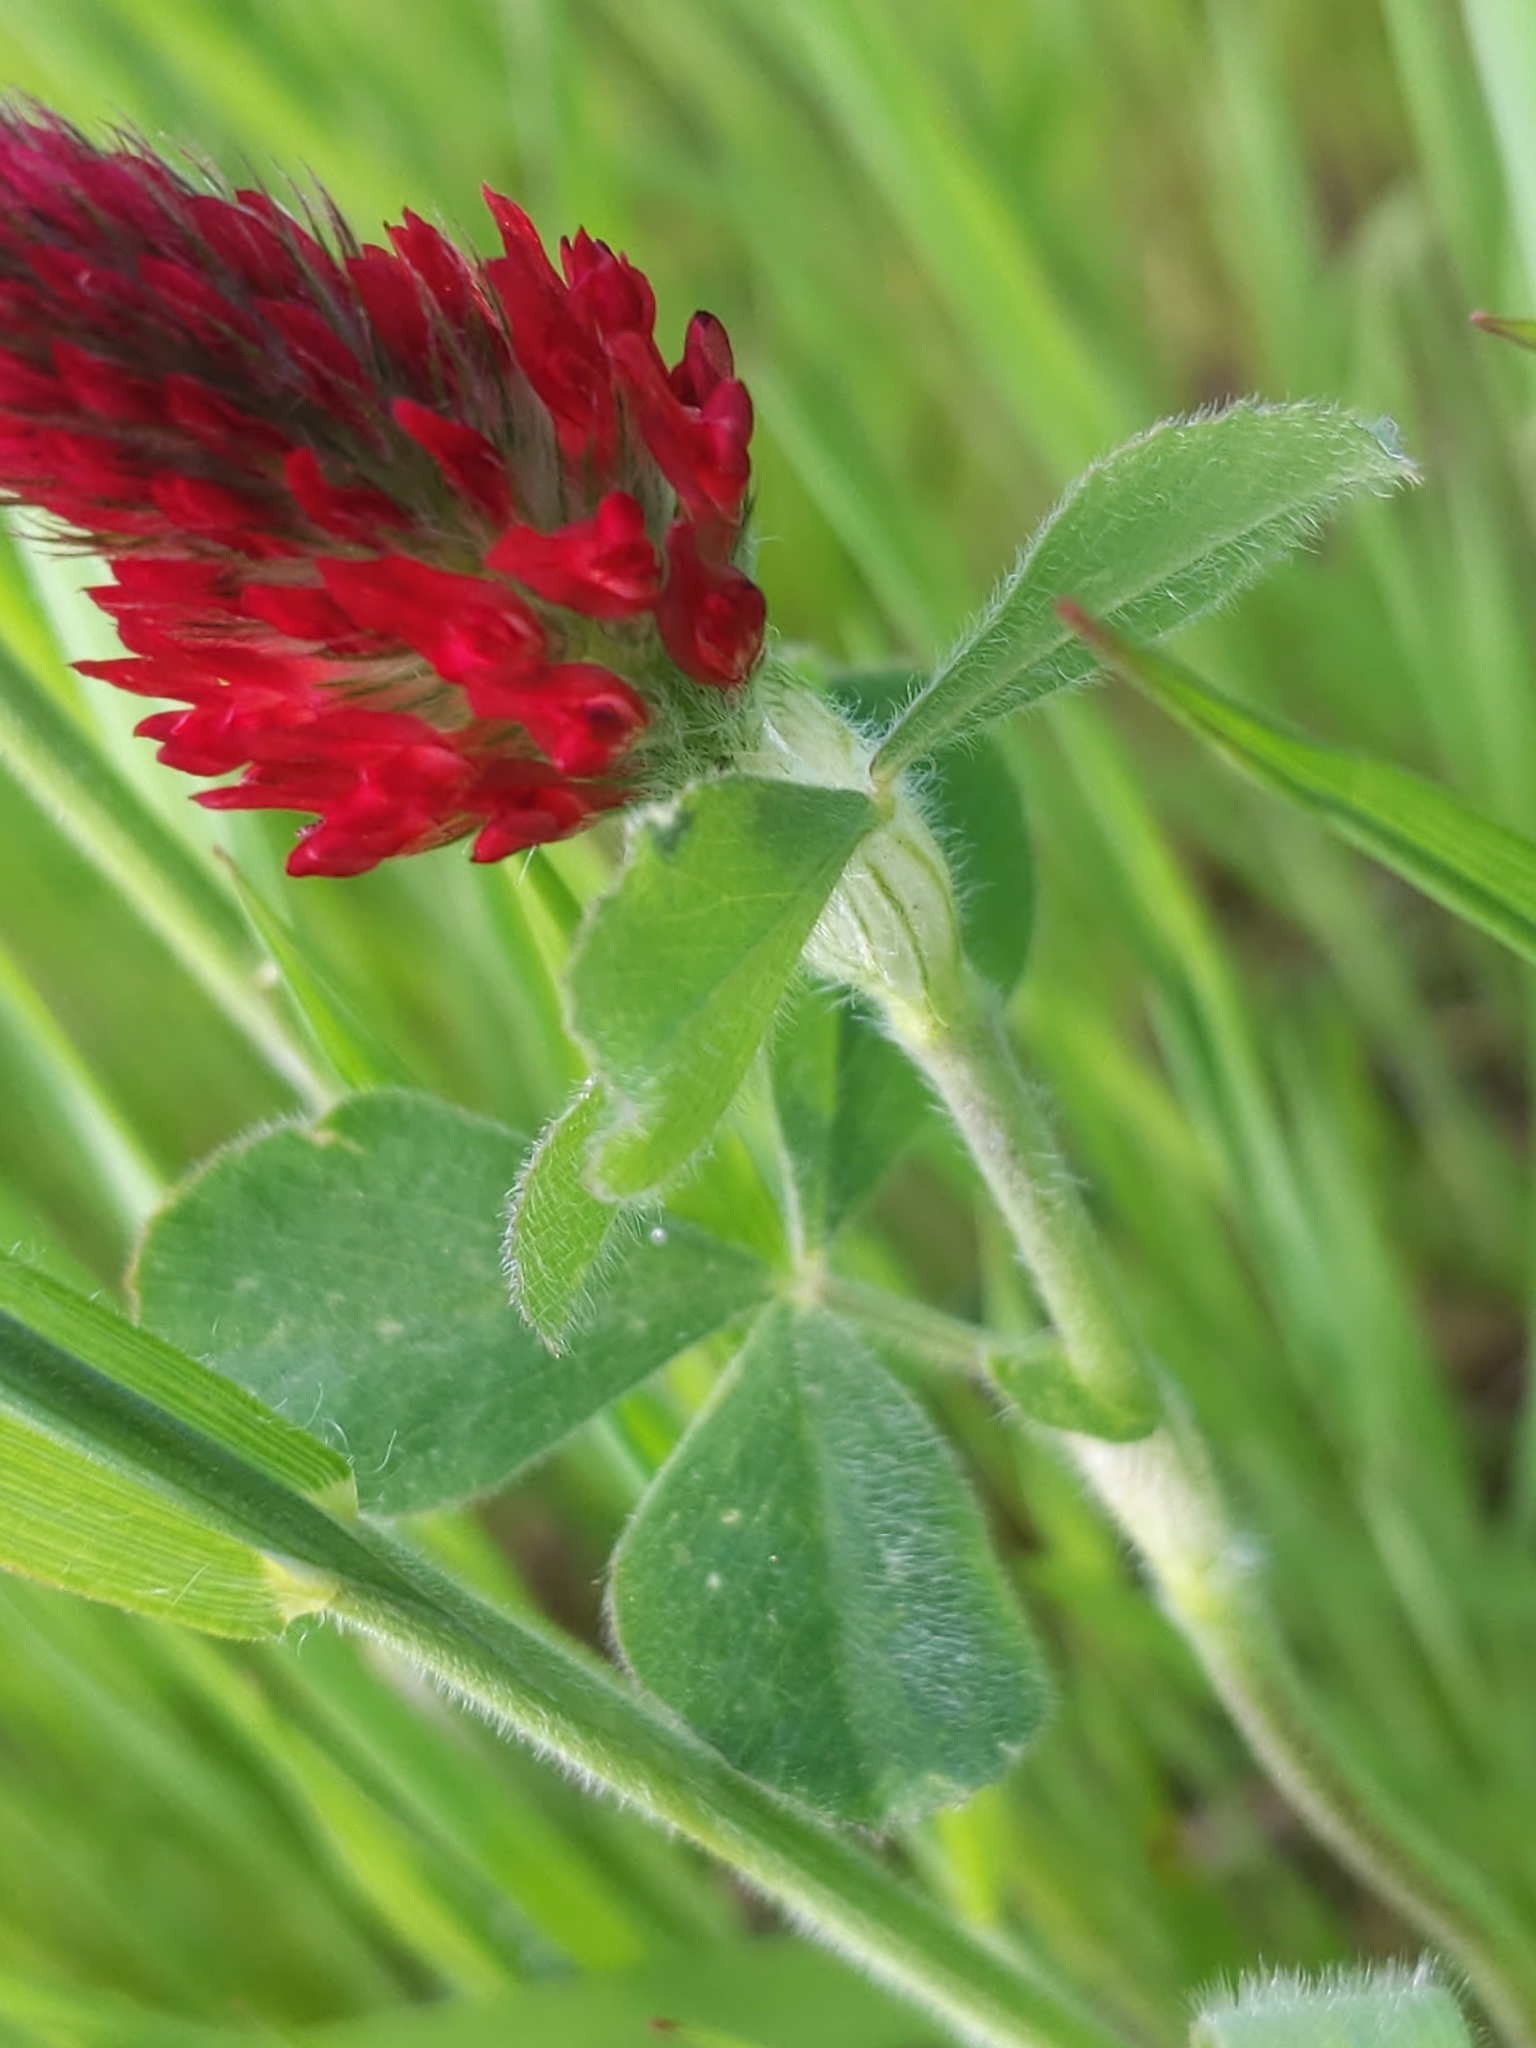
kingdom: Plantae
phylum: Tracheophyta
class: Magnoliopsida
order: Fabales
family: Fabaceae
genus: Trifolium
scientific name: Trifolium incarnatum
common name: Crimson clover
